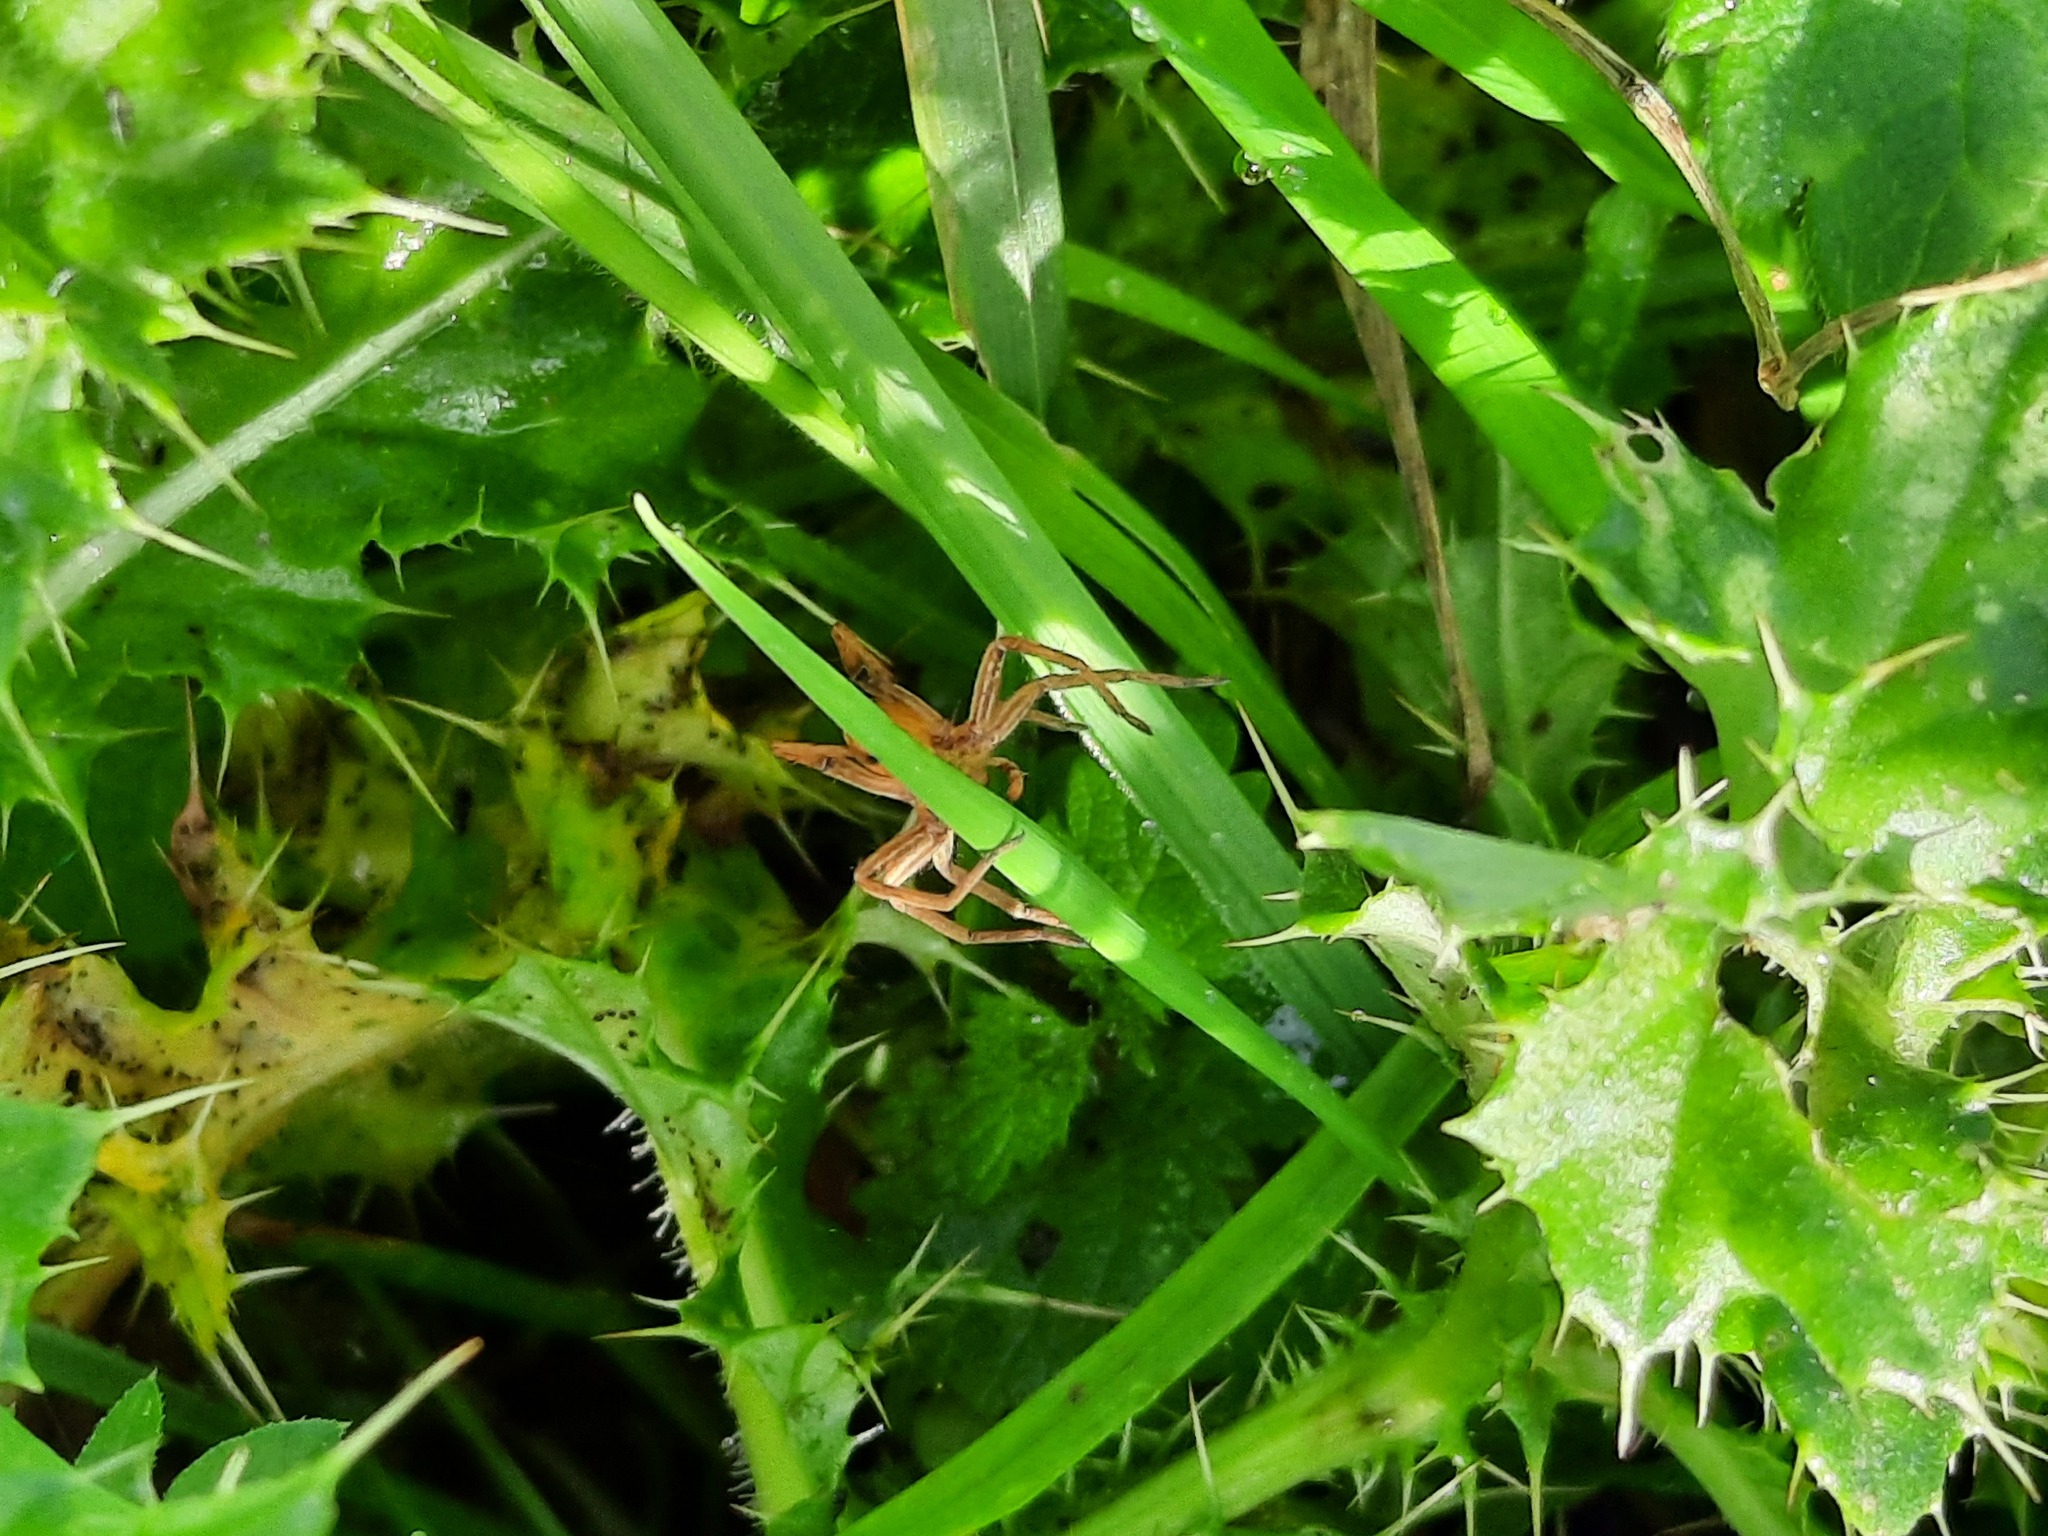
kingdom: Animalia
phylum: Arthropoda
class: Arachnida
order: Araneae
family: Pisauridae
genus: Pisaura
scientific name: Pisaura mirabilis
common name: Tent spider
